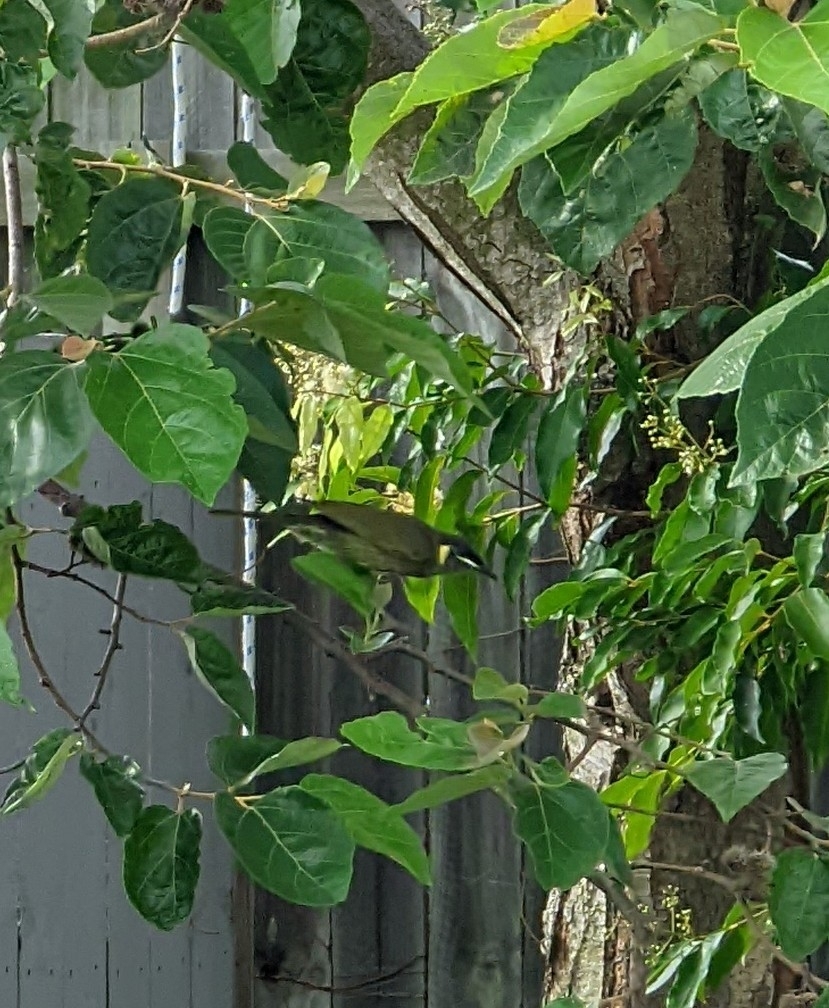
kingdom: Animalia
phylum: Chordata
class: Aves
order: Passeriformes
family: Meliphagidae
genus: Meliphaga
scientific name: Meliphaga lewinii
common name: Lewin's honeyeater
